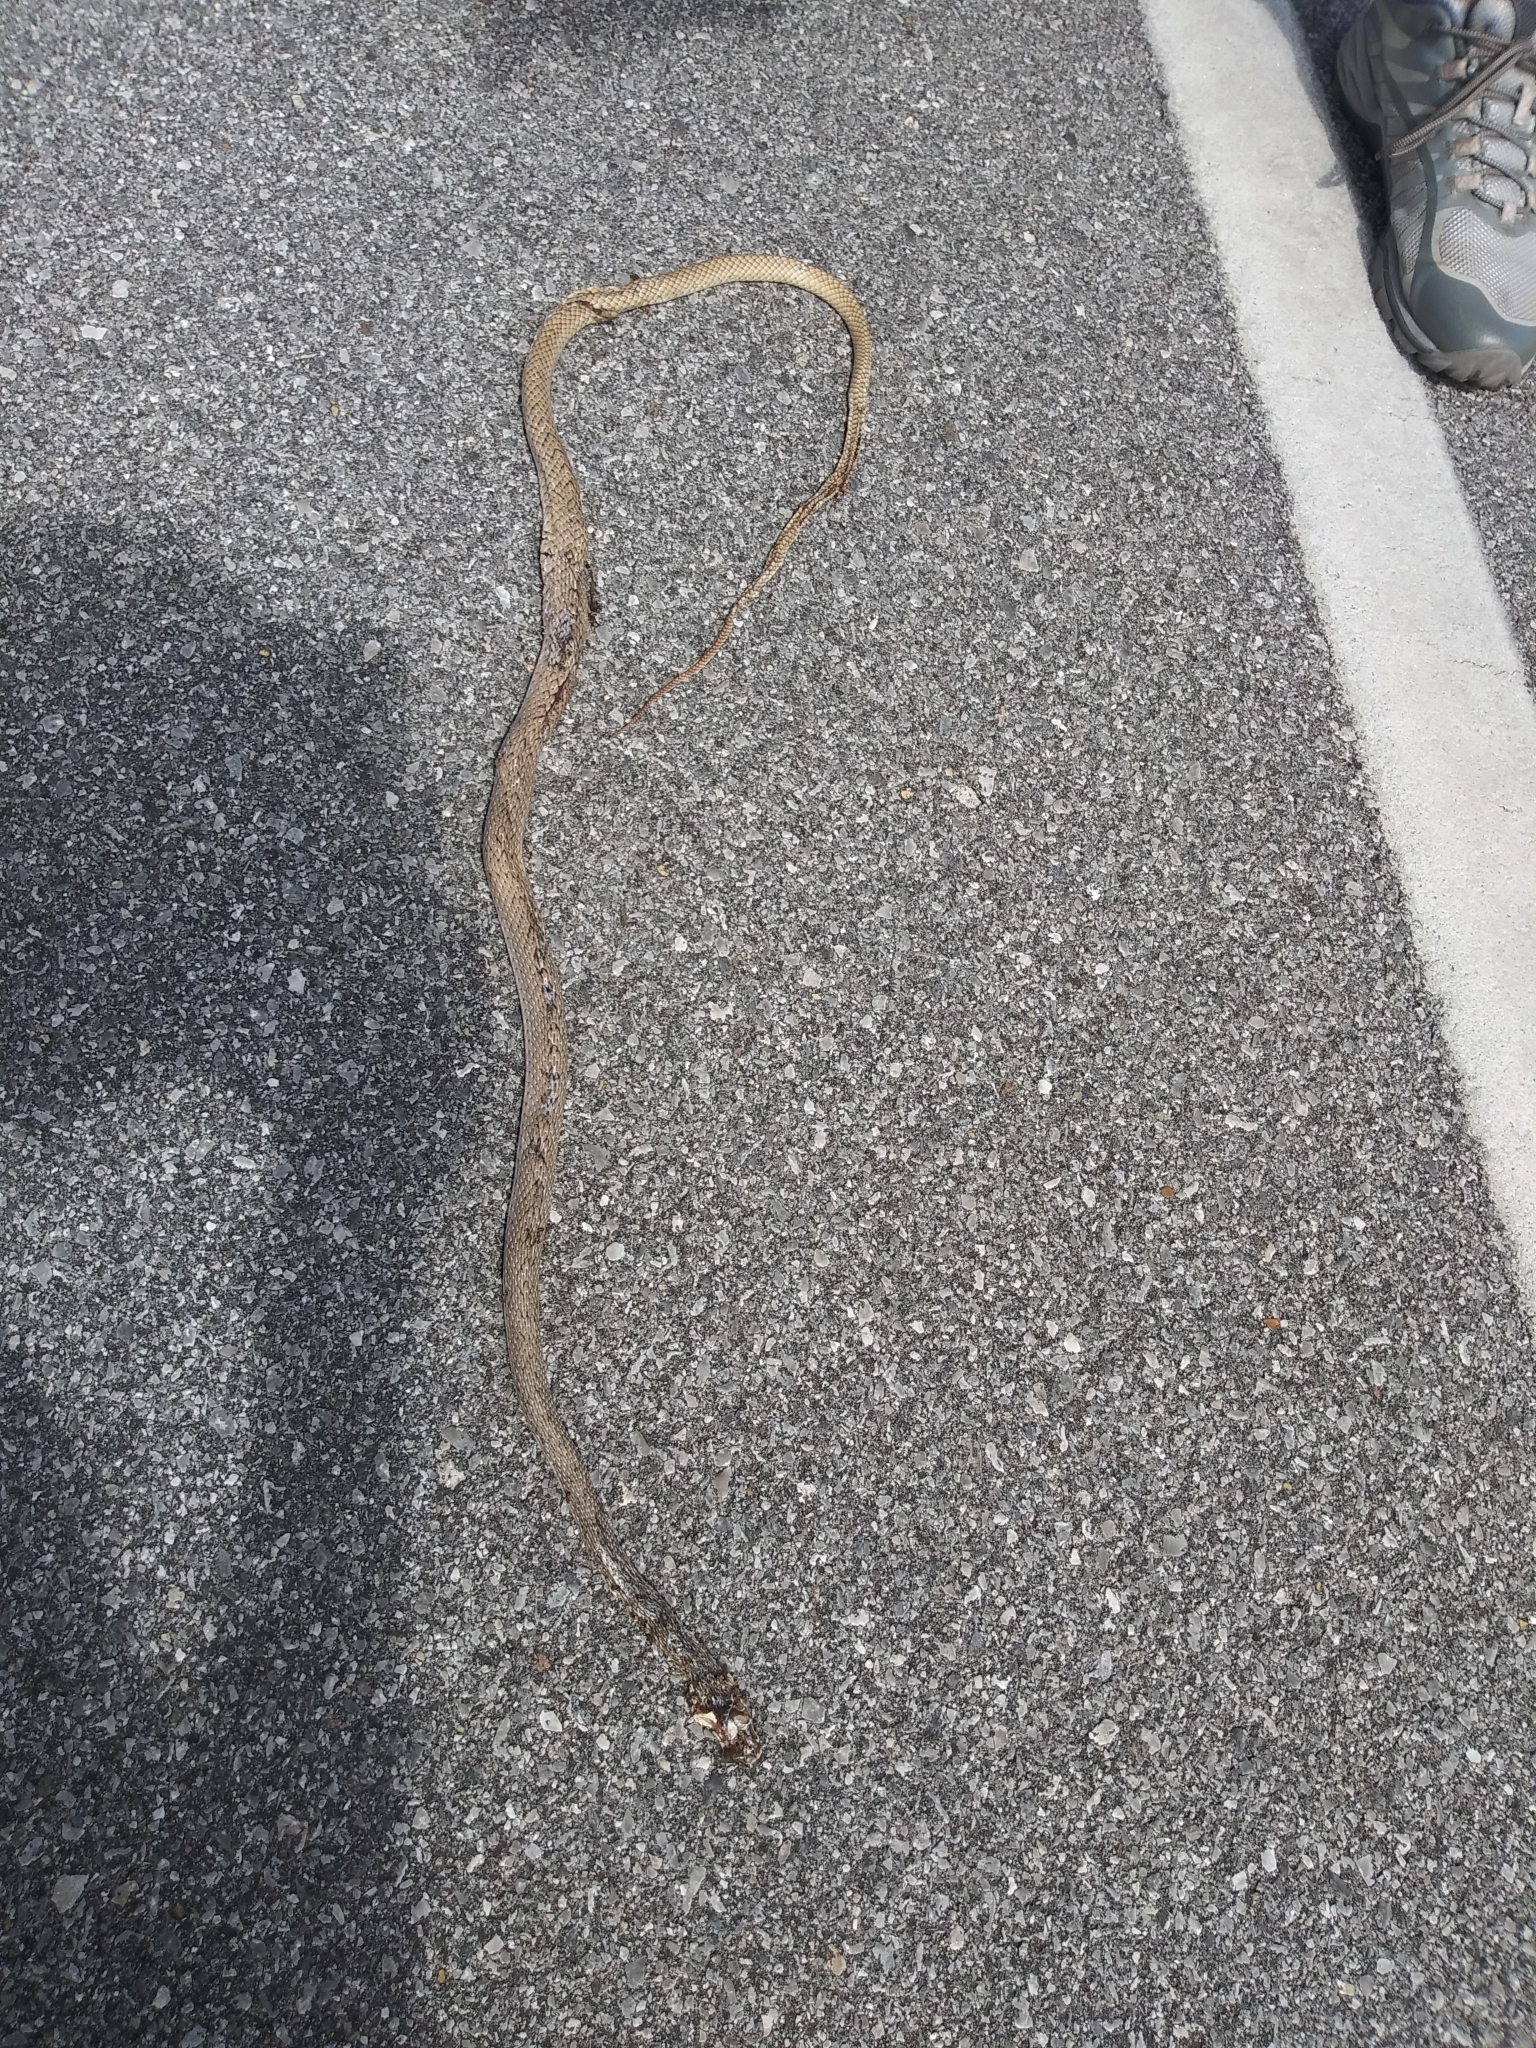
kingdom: Animalia
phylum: Chordata
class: Squamata
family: Colubridae
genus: Masticophis
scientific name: Masticophis flagellum
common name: Coachwhip
